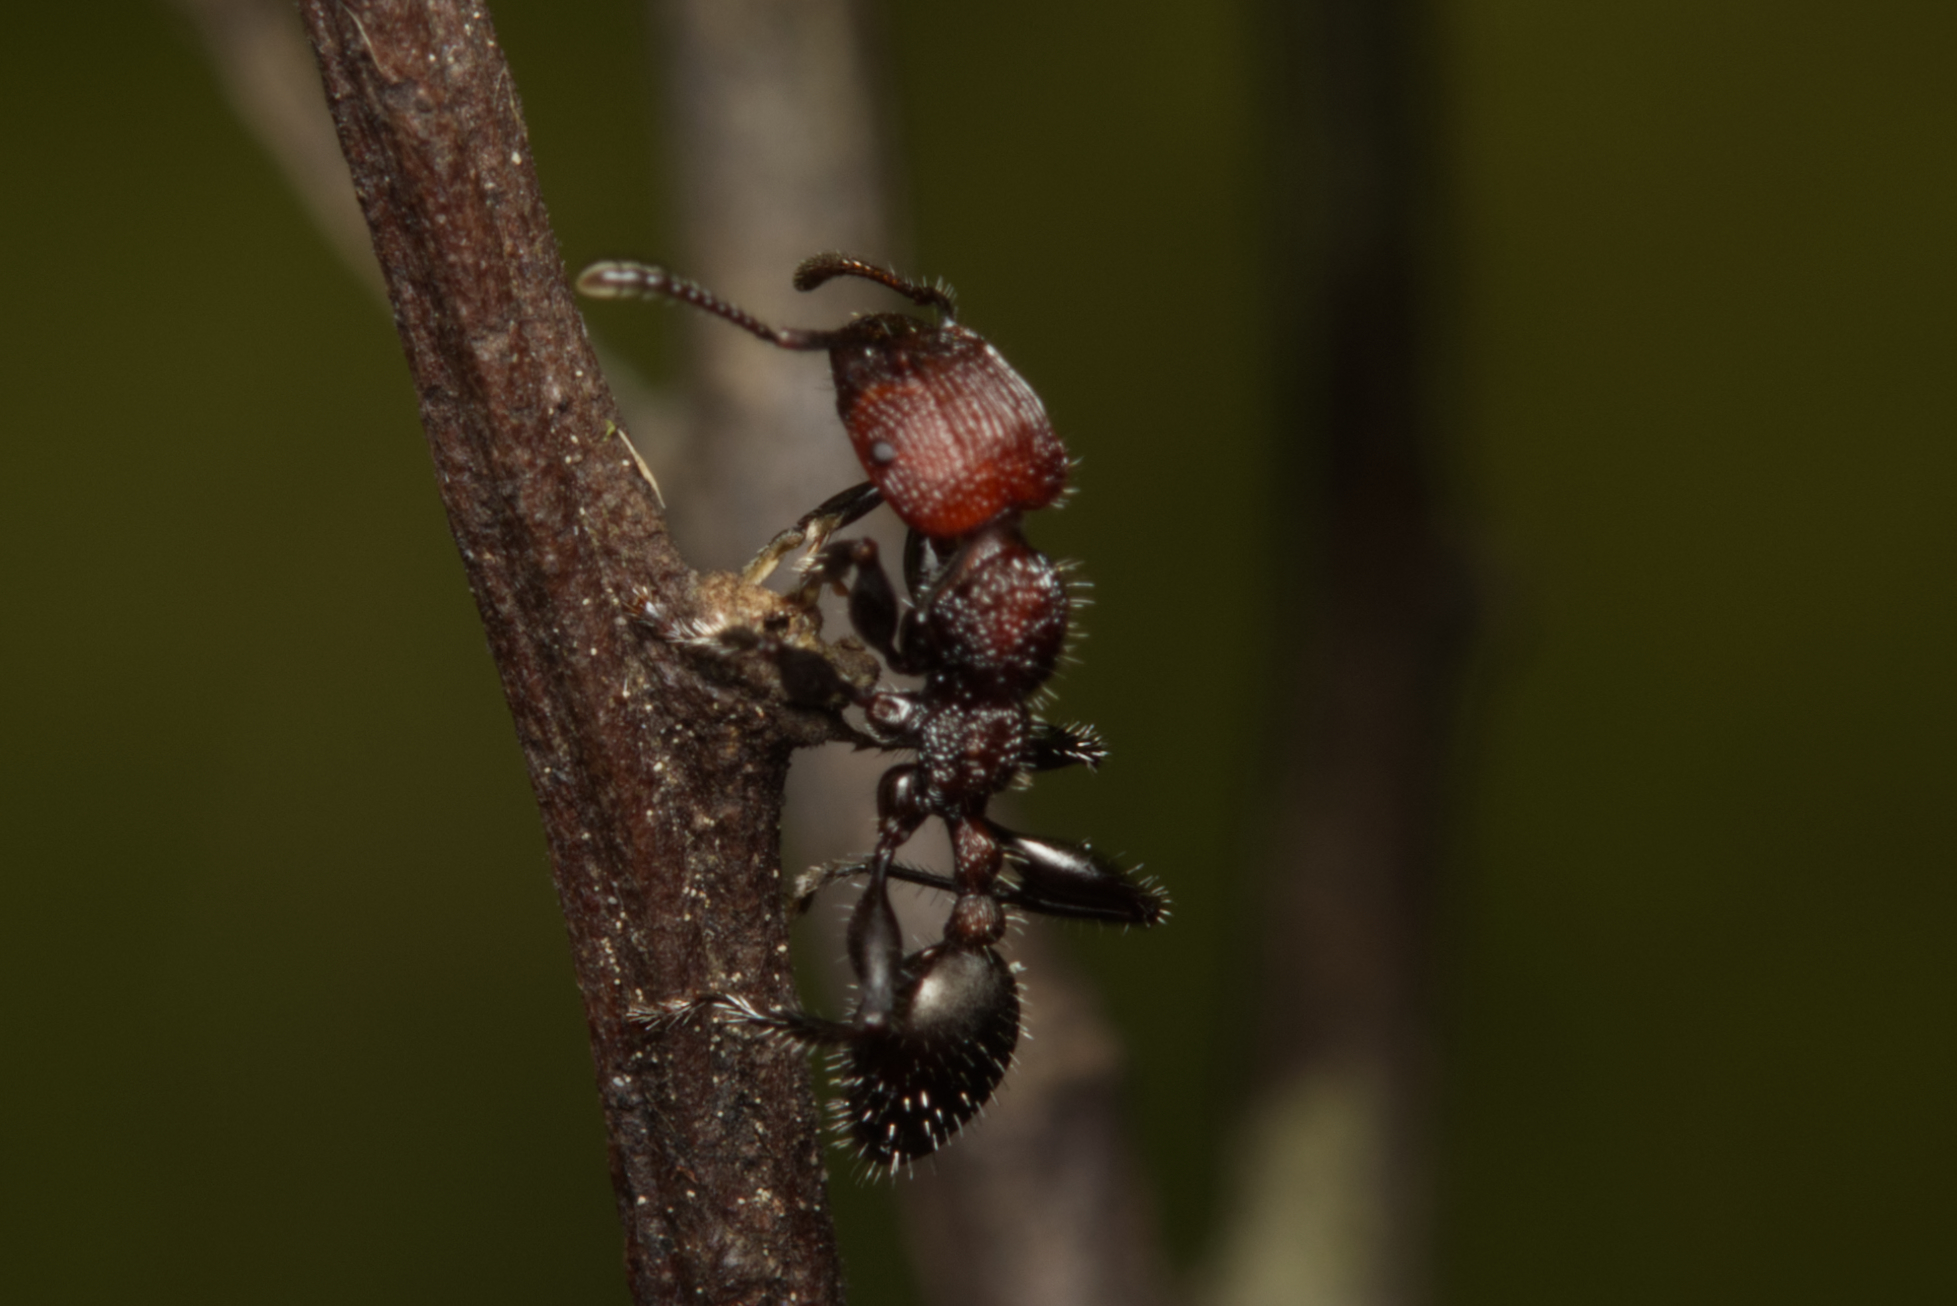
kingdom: Animalia
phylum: Arthropoda
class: Insecta
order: Hymenoptera
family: Formicidae
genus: Podomyrma
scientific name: Podomyrma micans
